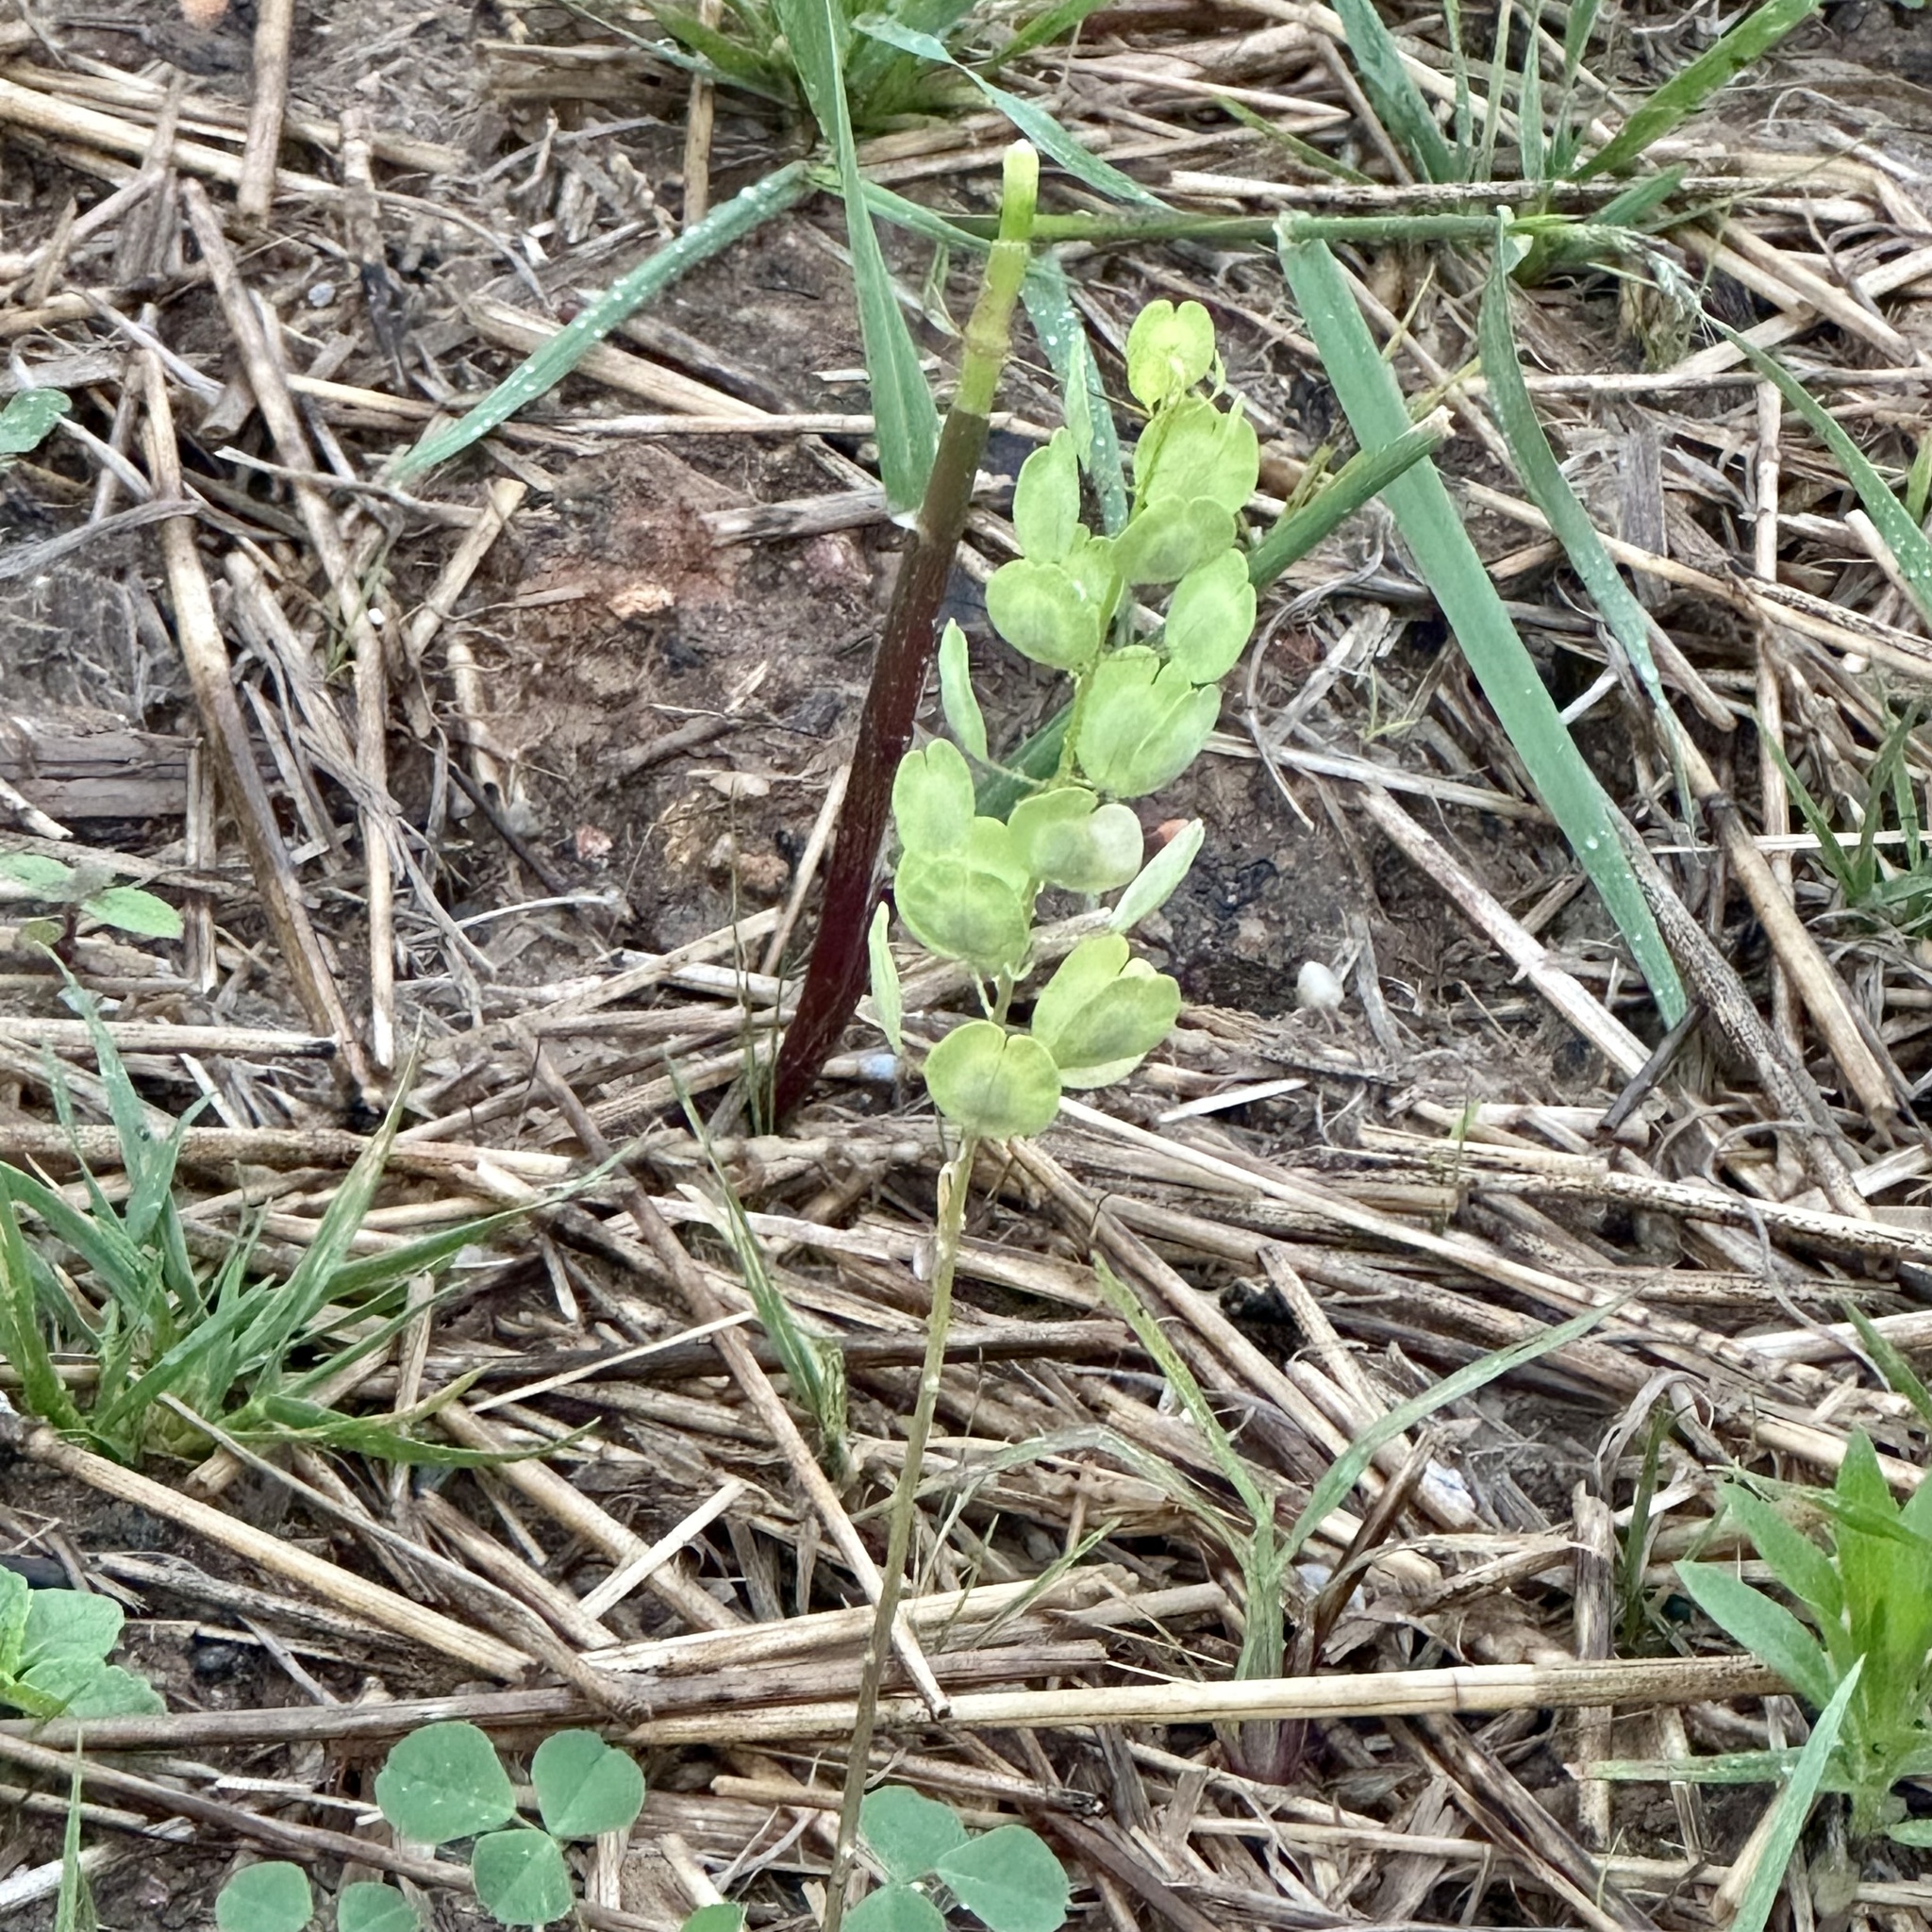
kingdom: Plantae
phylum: Tracheophyta
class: Magnoliopsida
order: Brassicales
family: Brassicaceae
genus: Thlaspi
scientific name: Thlaspi arvense
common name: Field pennycress
